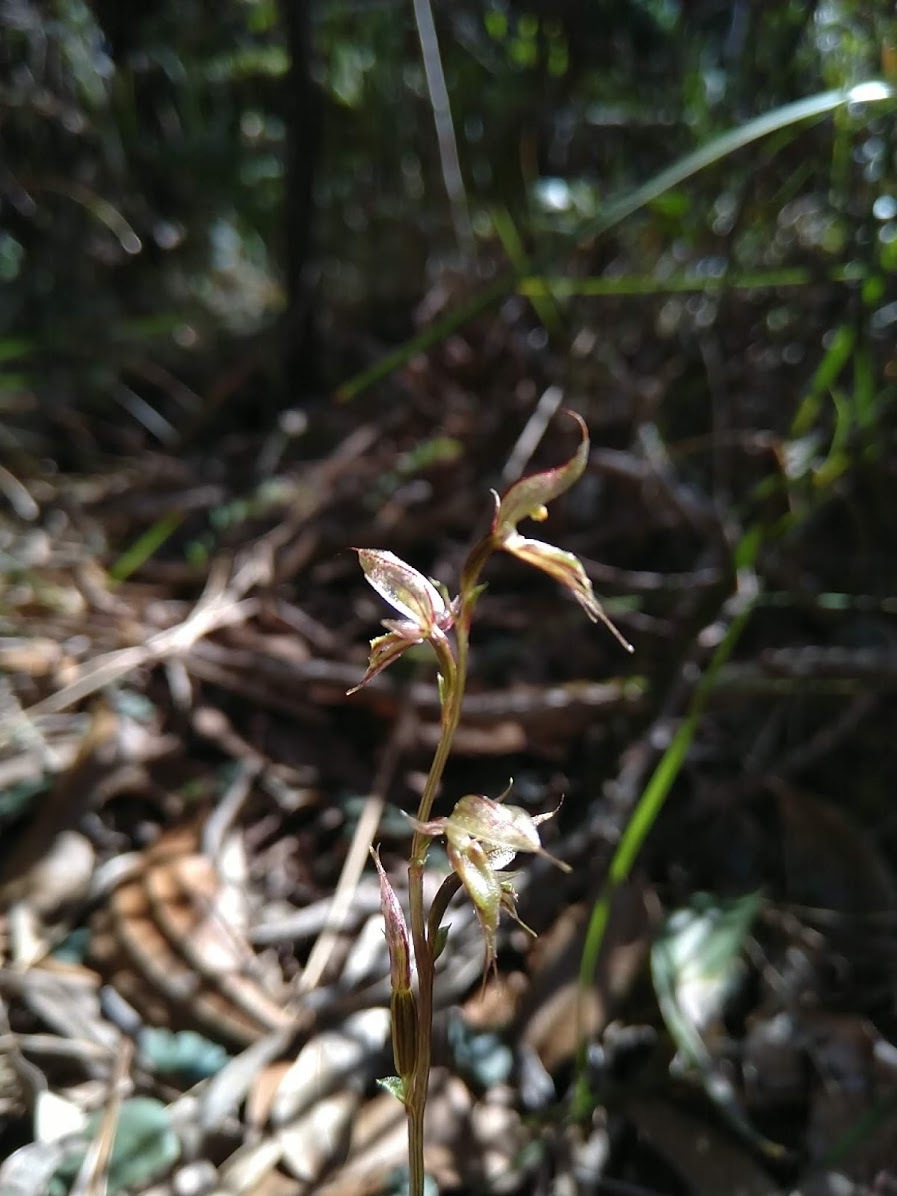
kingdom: Plantae
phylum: Tracheophyta
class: Liliopsida
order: Asparagales
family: Orchidaceae
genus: Acianthus
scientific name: Acianthus fornicatus
